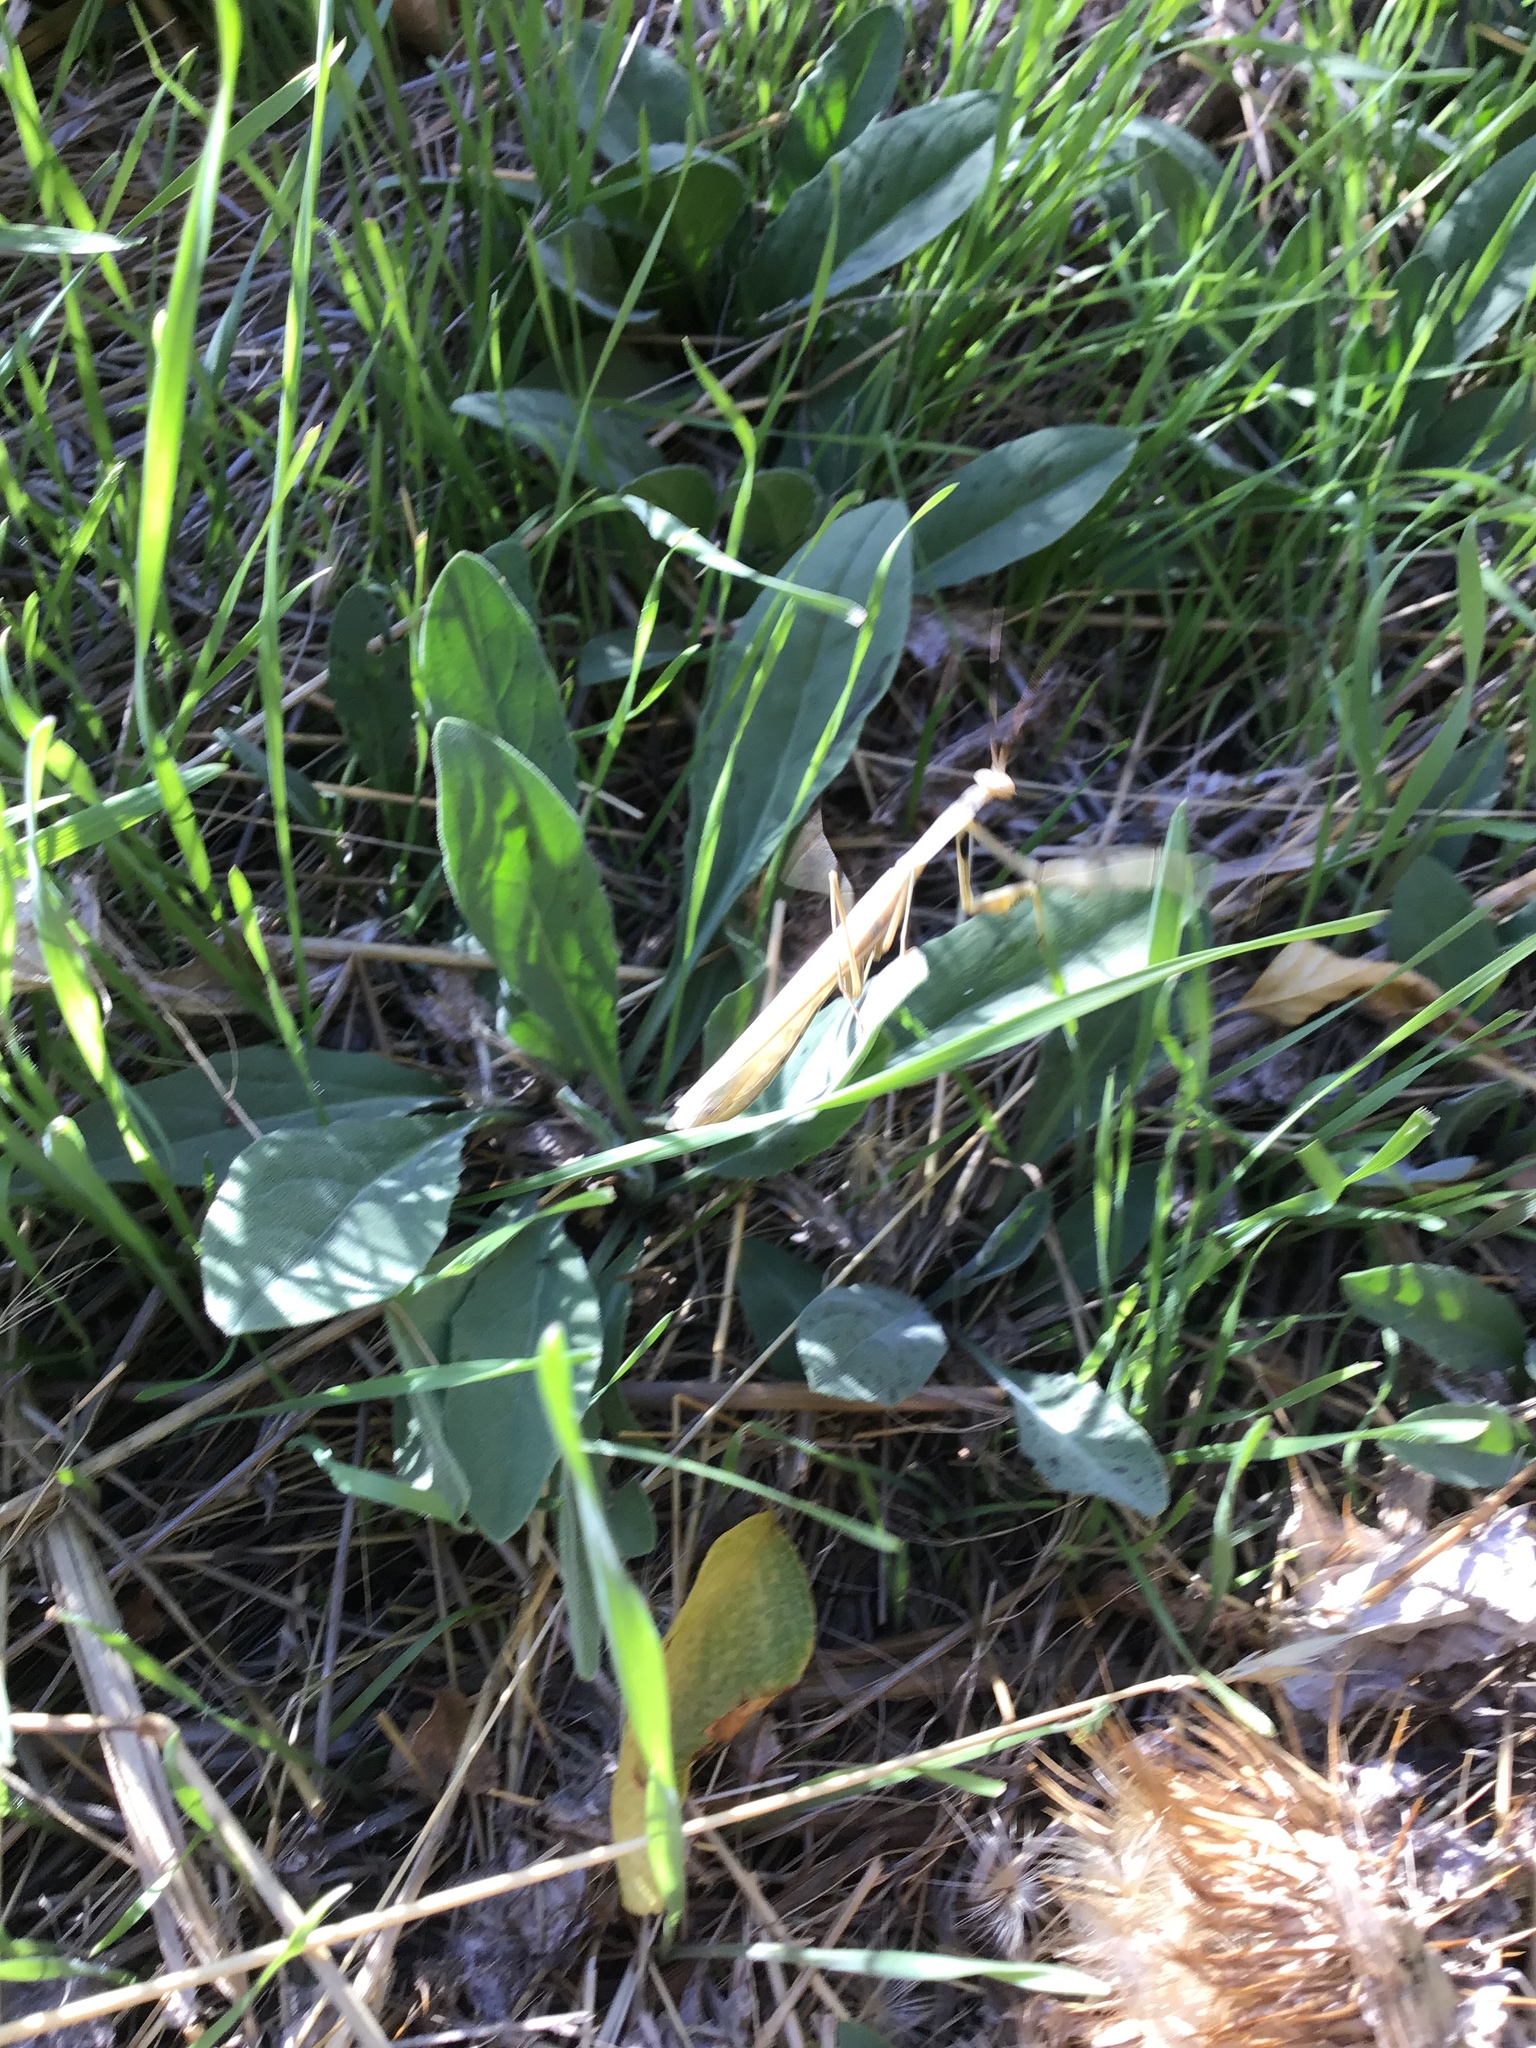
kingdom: Animalia
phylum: Arthropoda
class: Insecta
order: Mantodea
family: Mantidae
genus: Mantis
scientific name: Mantis religiosa
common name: Praying mantis
